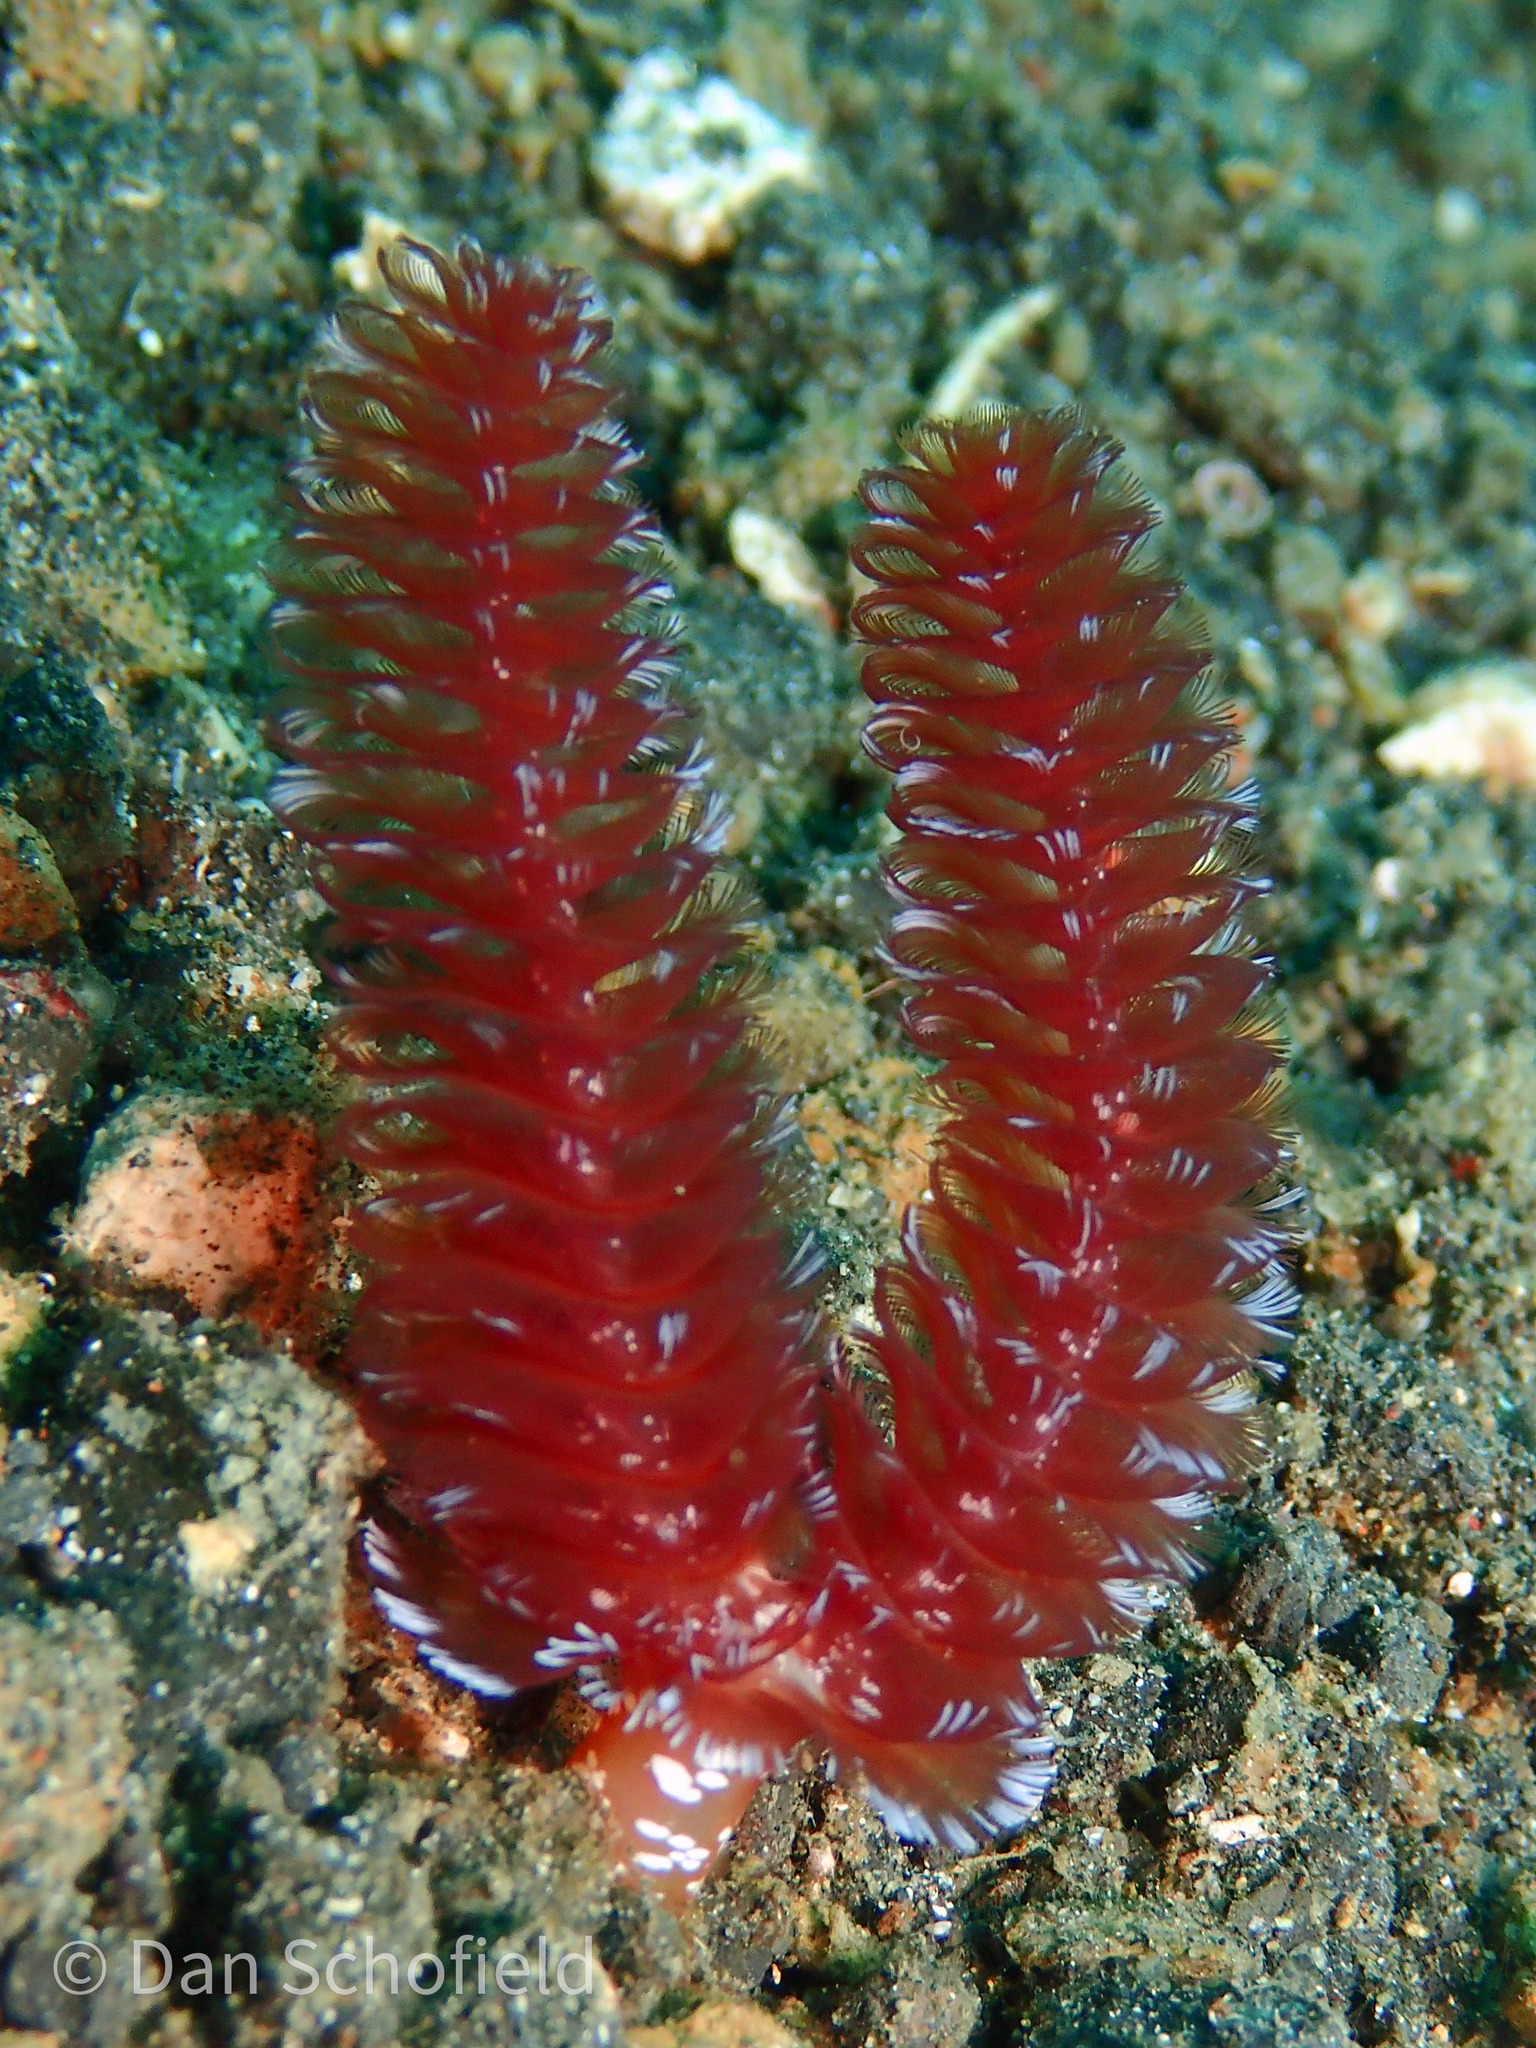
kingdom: Animalia
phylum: Phoronida
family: Phoronidae
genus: Phoronopsis
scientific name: Phoronopsis californica
